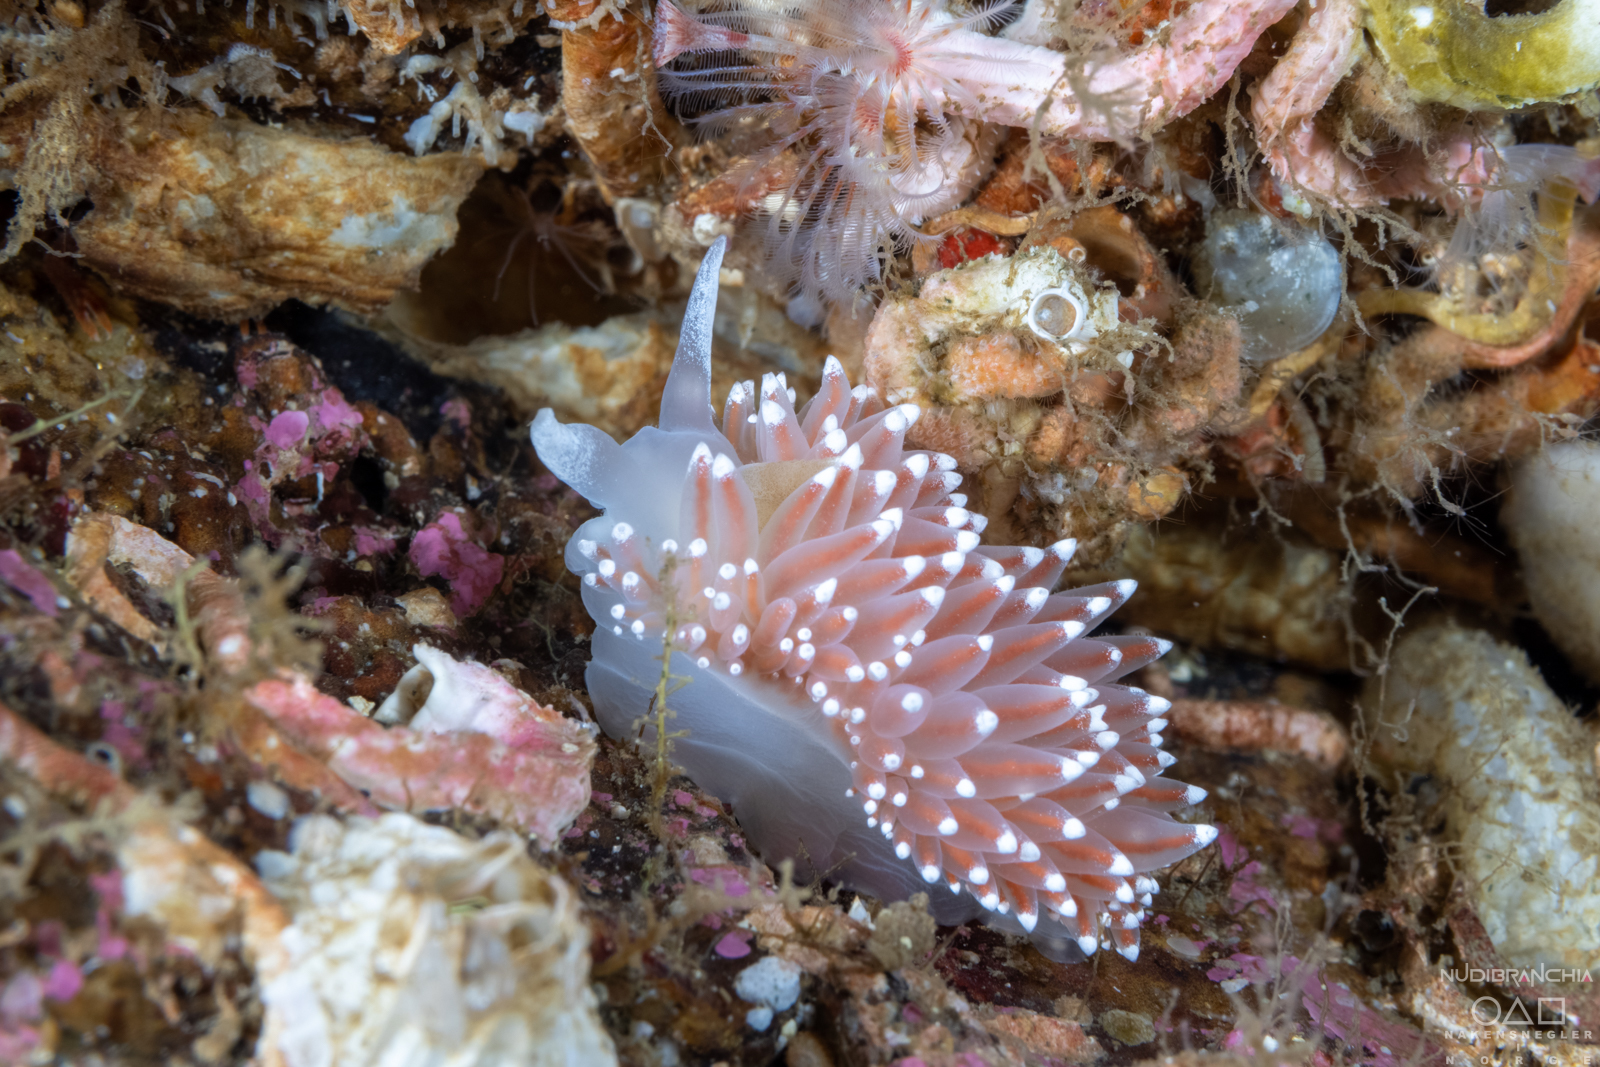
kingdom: Animalia
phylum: Mollusca
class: Gastropoda
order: Nudibranchia
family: Coryphellidae
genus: Coryphella
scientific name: Coryphella nobilis
